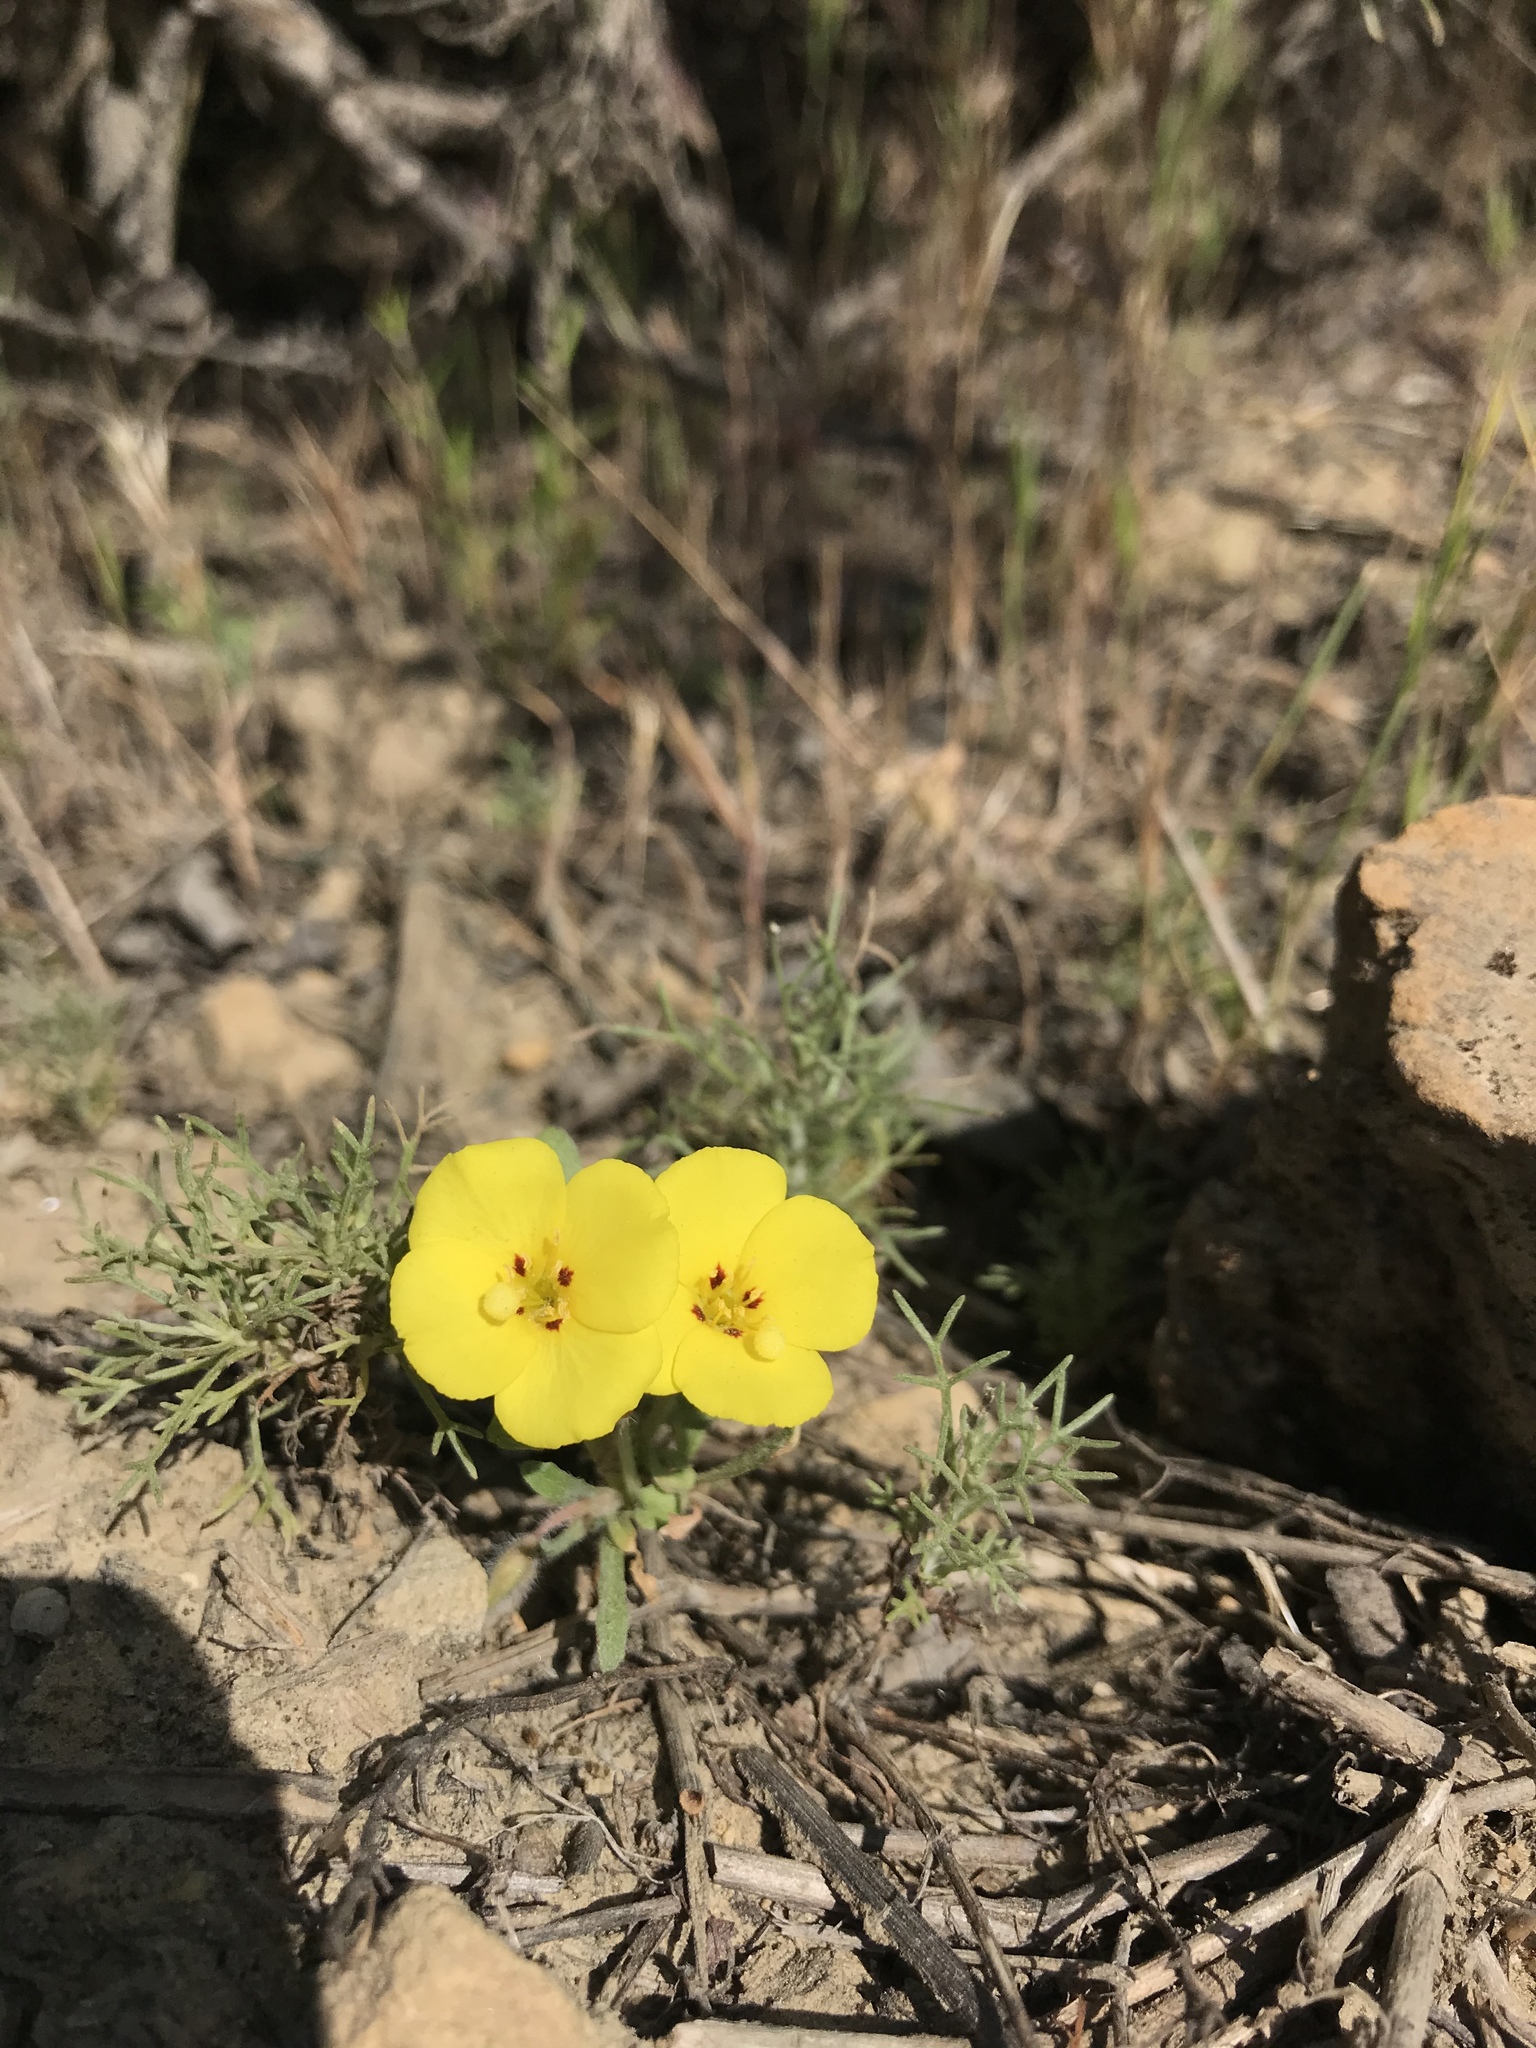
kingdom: Plantae
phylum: Tracheophyta
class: Magnoliopsida
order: Myrtales
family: Onagraceae
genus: Camissoniopsis
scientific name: Camissoniopsis bistorta
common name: Southern suncup
